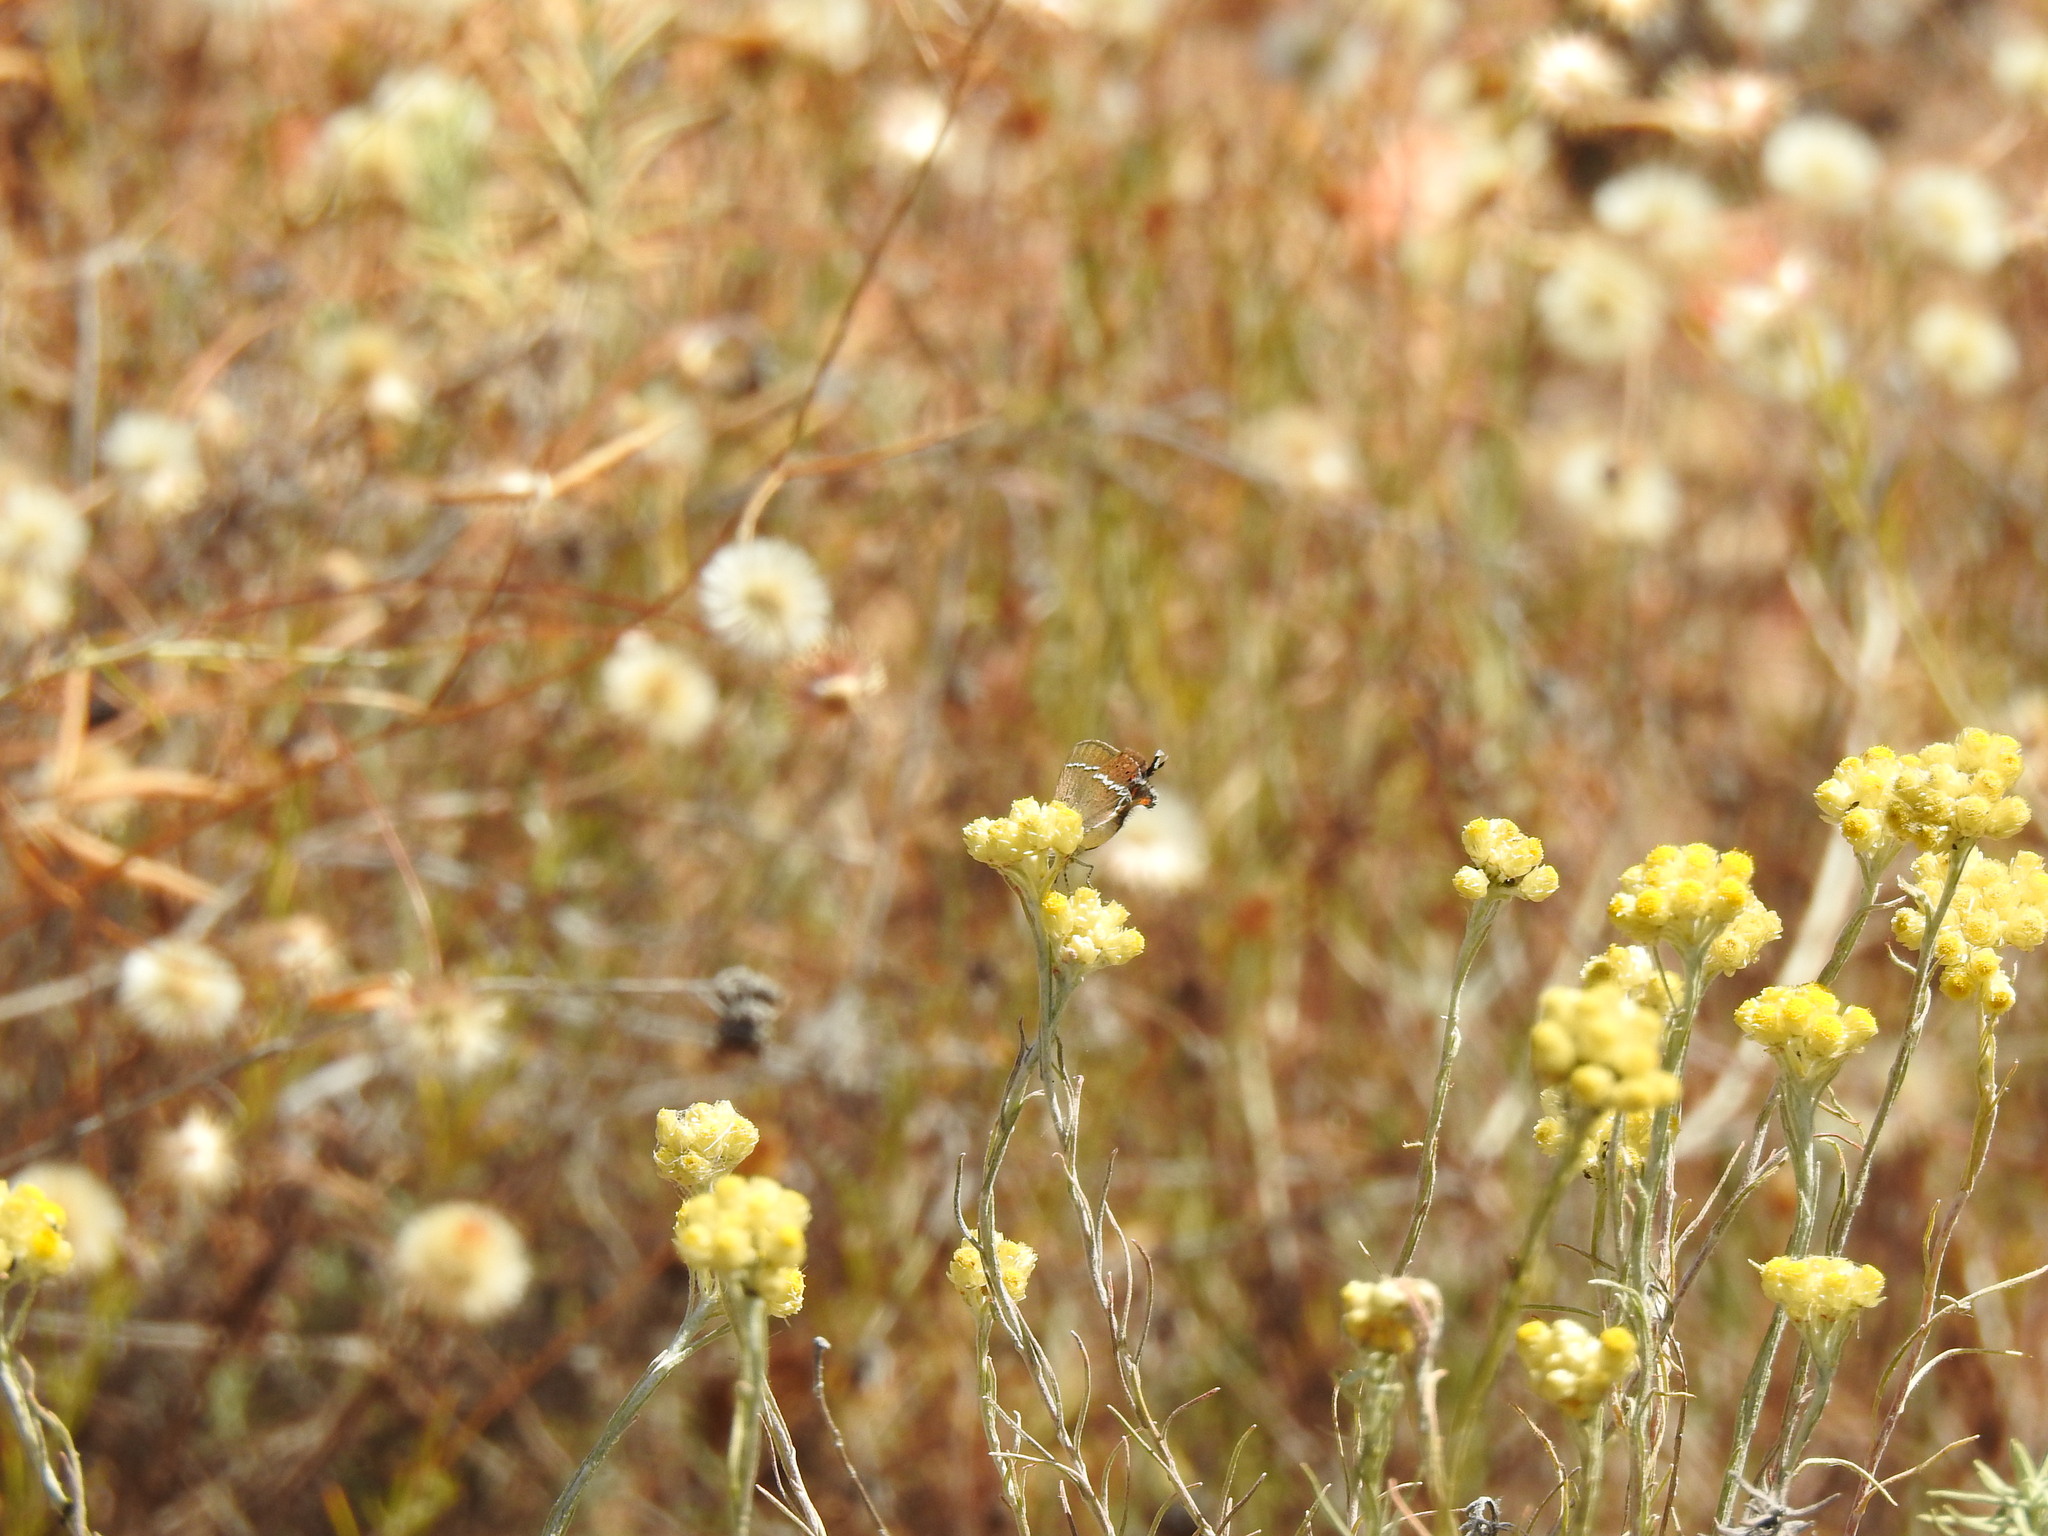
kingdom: Animalia
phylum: Arthropoda
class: Insecta
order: Lepidoptera
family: Lycaenidae
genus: Tuttiola
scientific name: Tuttiola spini
